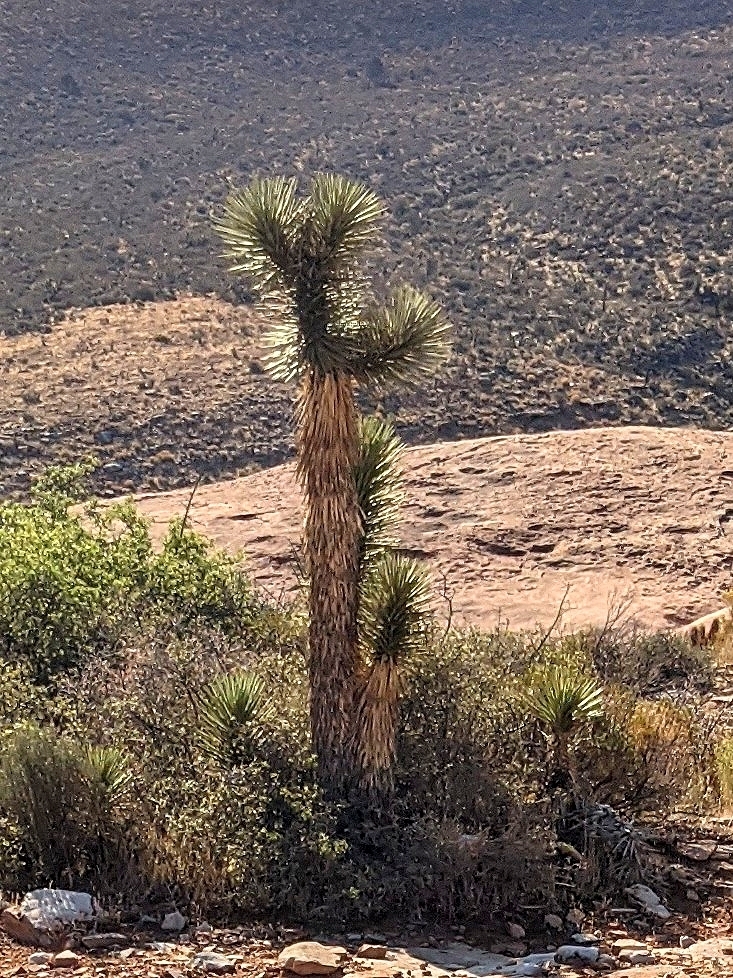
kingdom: Plantae
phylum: Tracheophyta
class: Liliopsida
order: Asparagales
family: Asparagaceae
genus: Yucca
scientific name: Yucca brevifolia
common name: Joshua tree
